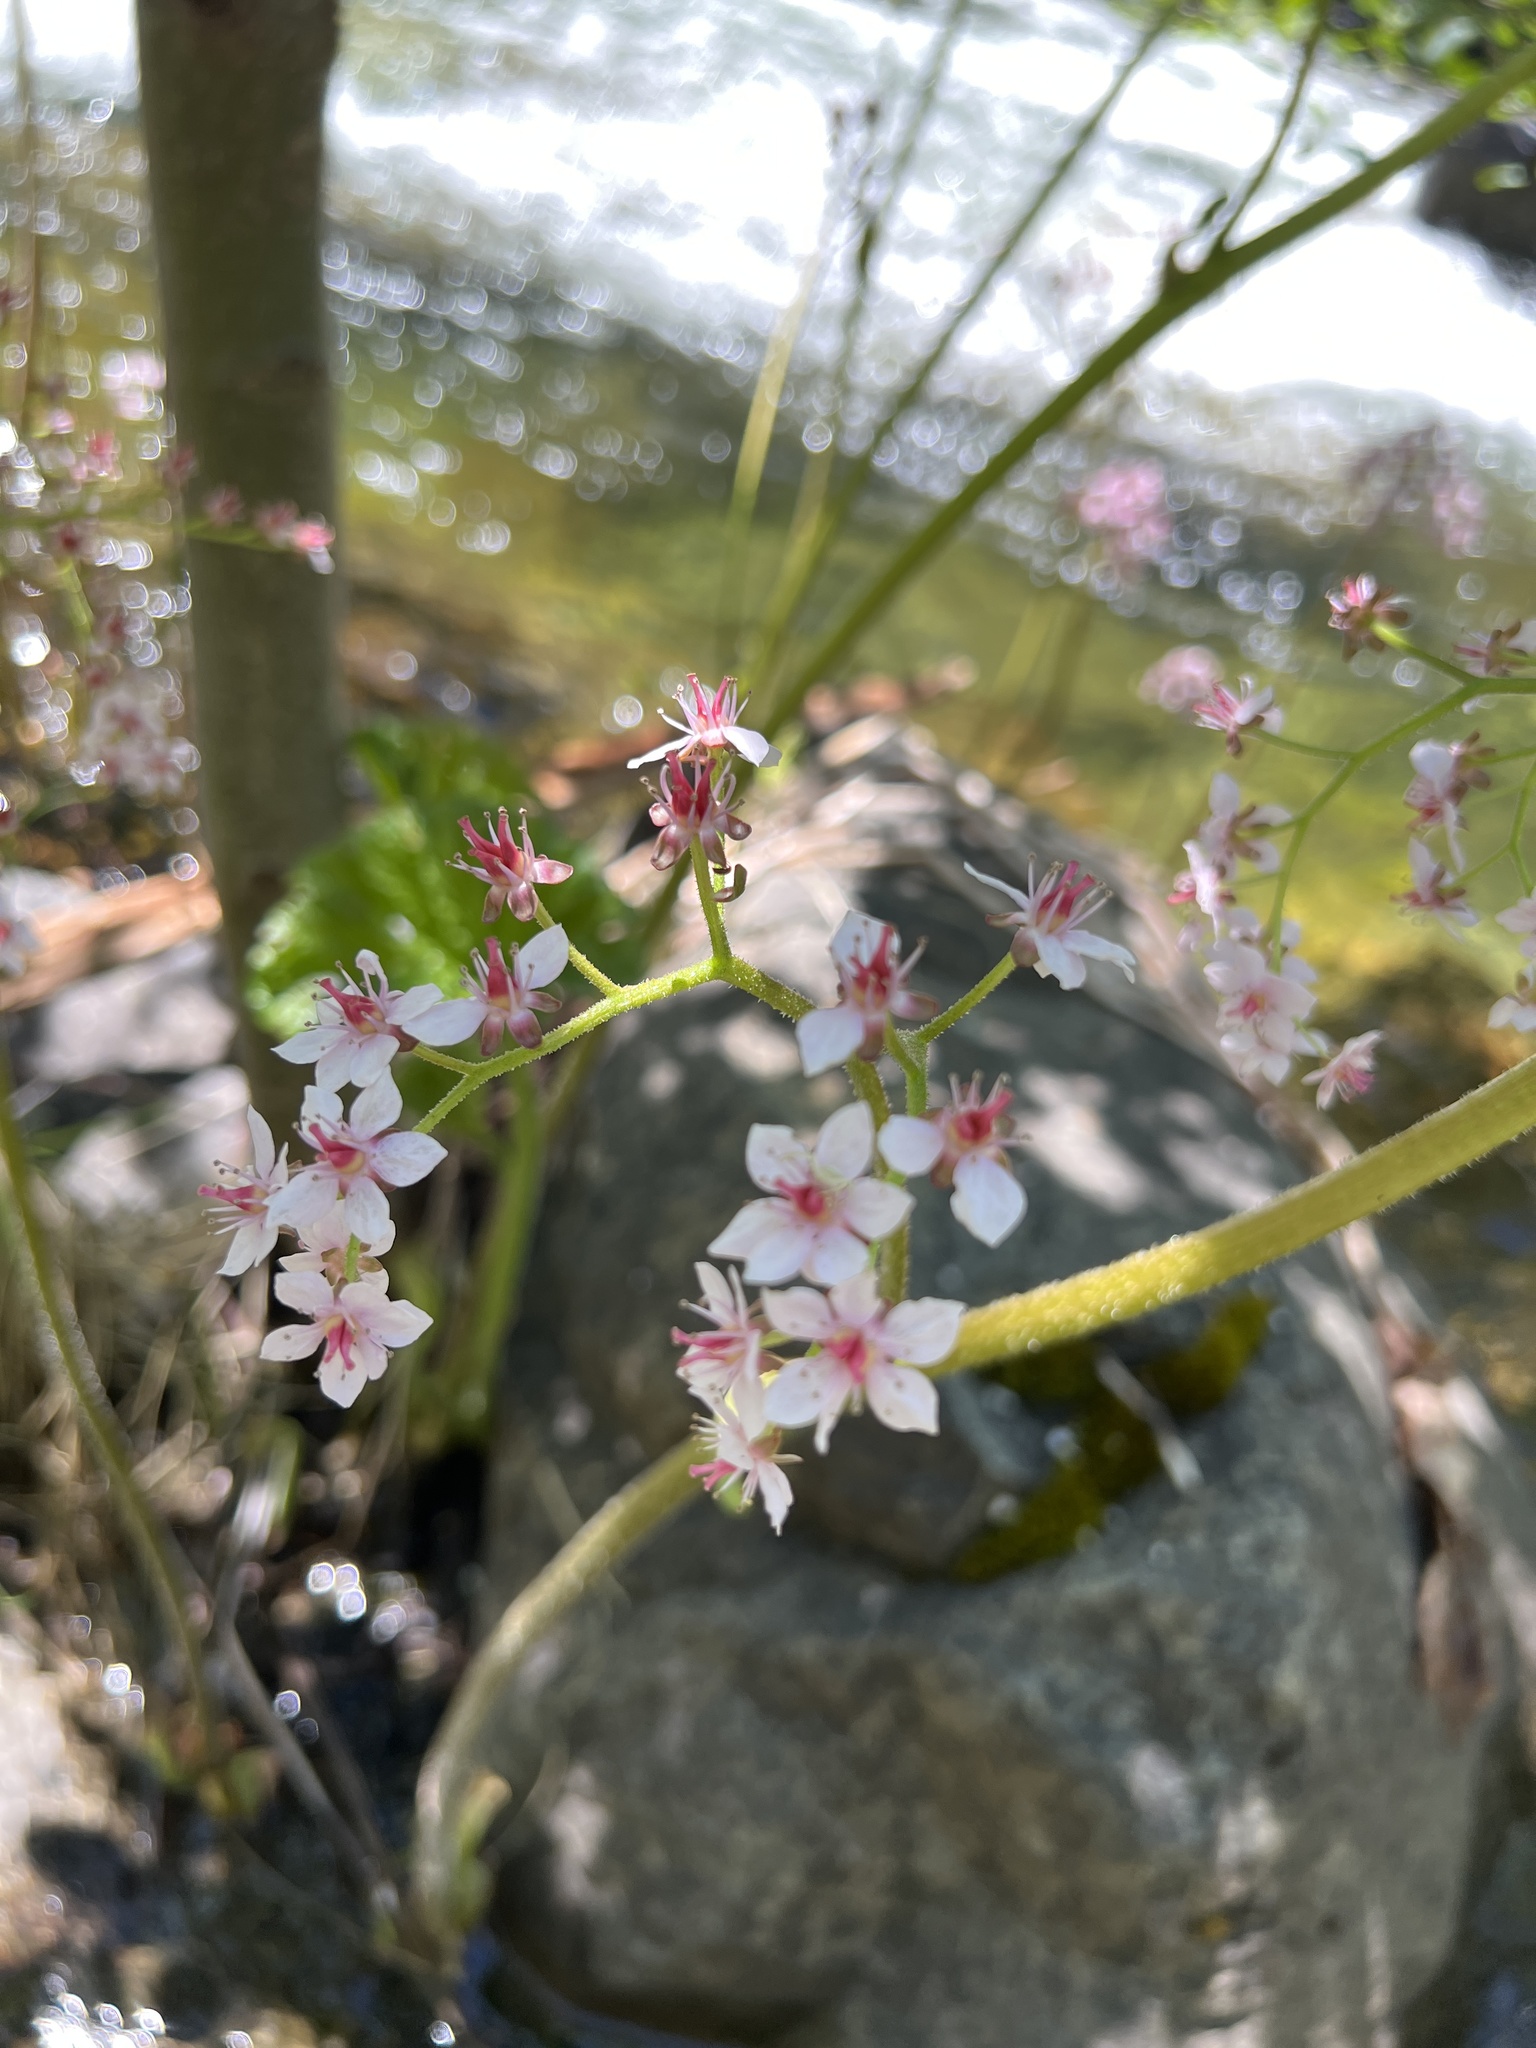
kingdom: Plantae
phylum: Tracheophyta
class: Magnoliopsida
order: Saxifragales
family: Saxifragaceae
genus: Darmera
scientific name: Darmera peltata
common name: Indian-rhubarb
